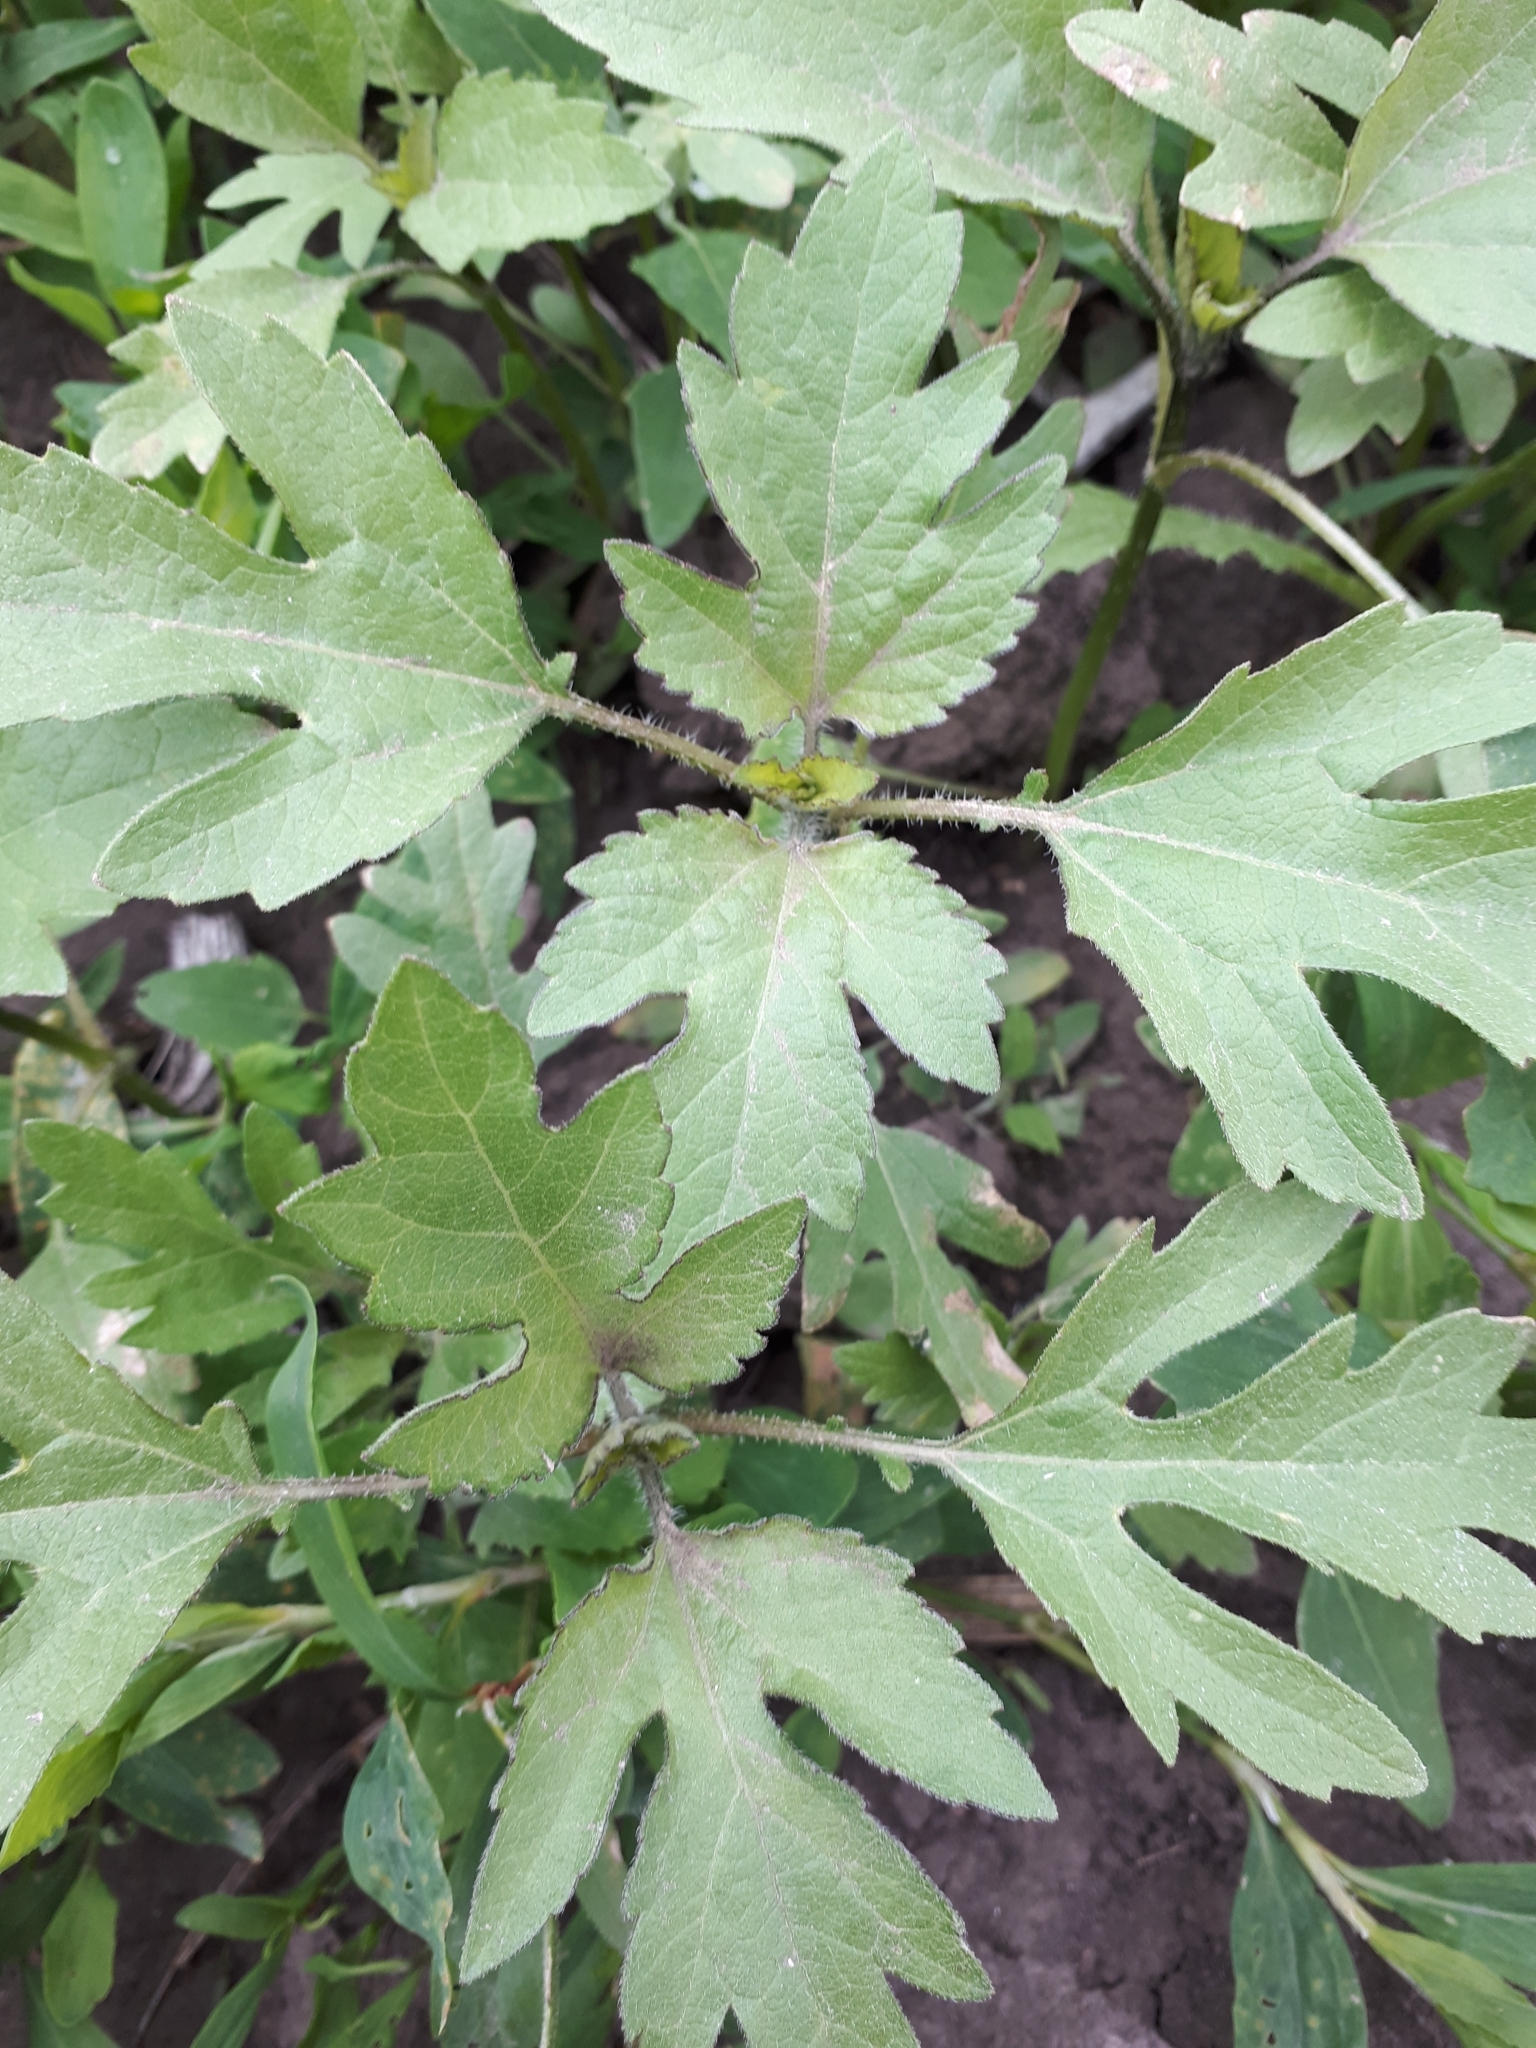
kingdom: Plantae
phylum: Tracheophyta
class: Magnoliopsida
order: Asterales
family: Asteraceae
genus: Xanthium
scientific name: Xanthium orientale
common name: Californian burr
